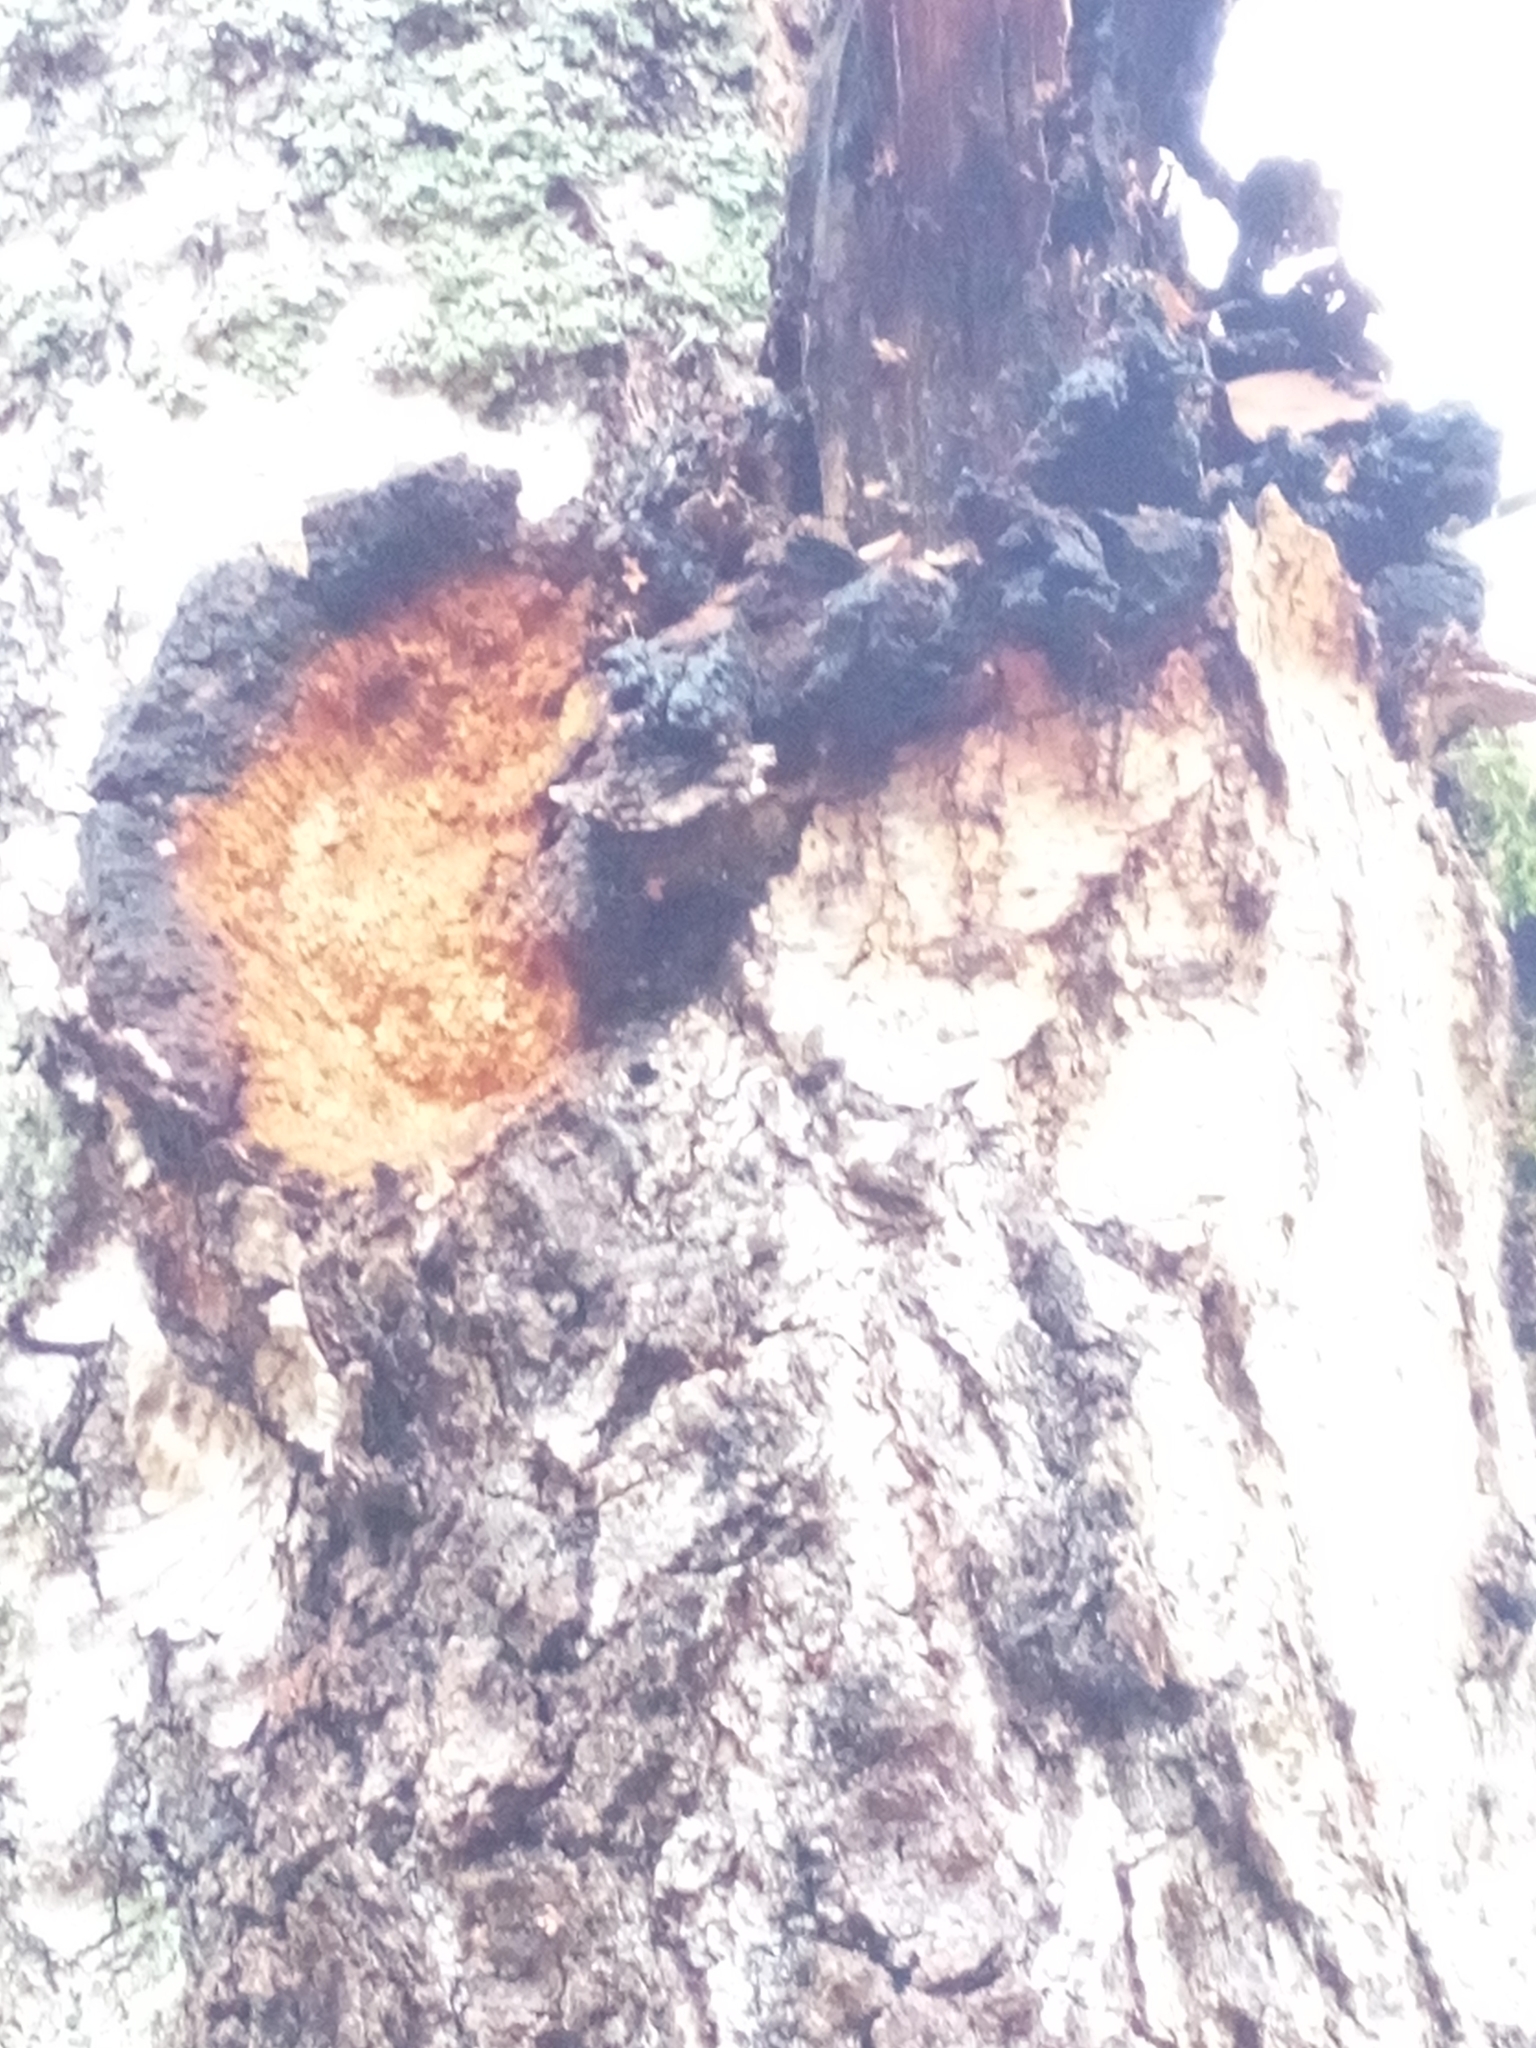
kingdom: Fungi
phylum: Basidiomycota
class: Agaricomycetes
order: Hymenochaetales
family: Hymenochaetaceae
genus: Inonotus
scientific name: Inonotus obliquus
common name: Chaga
